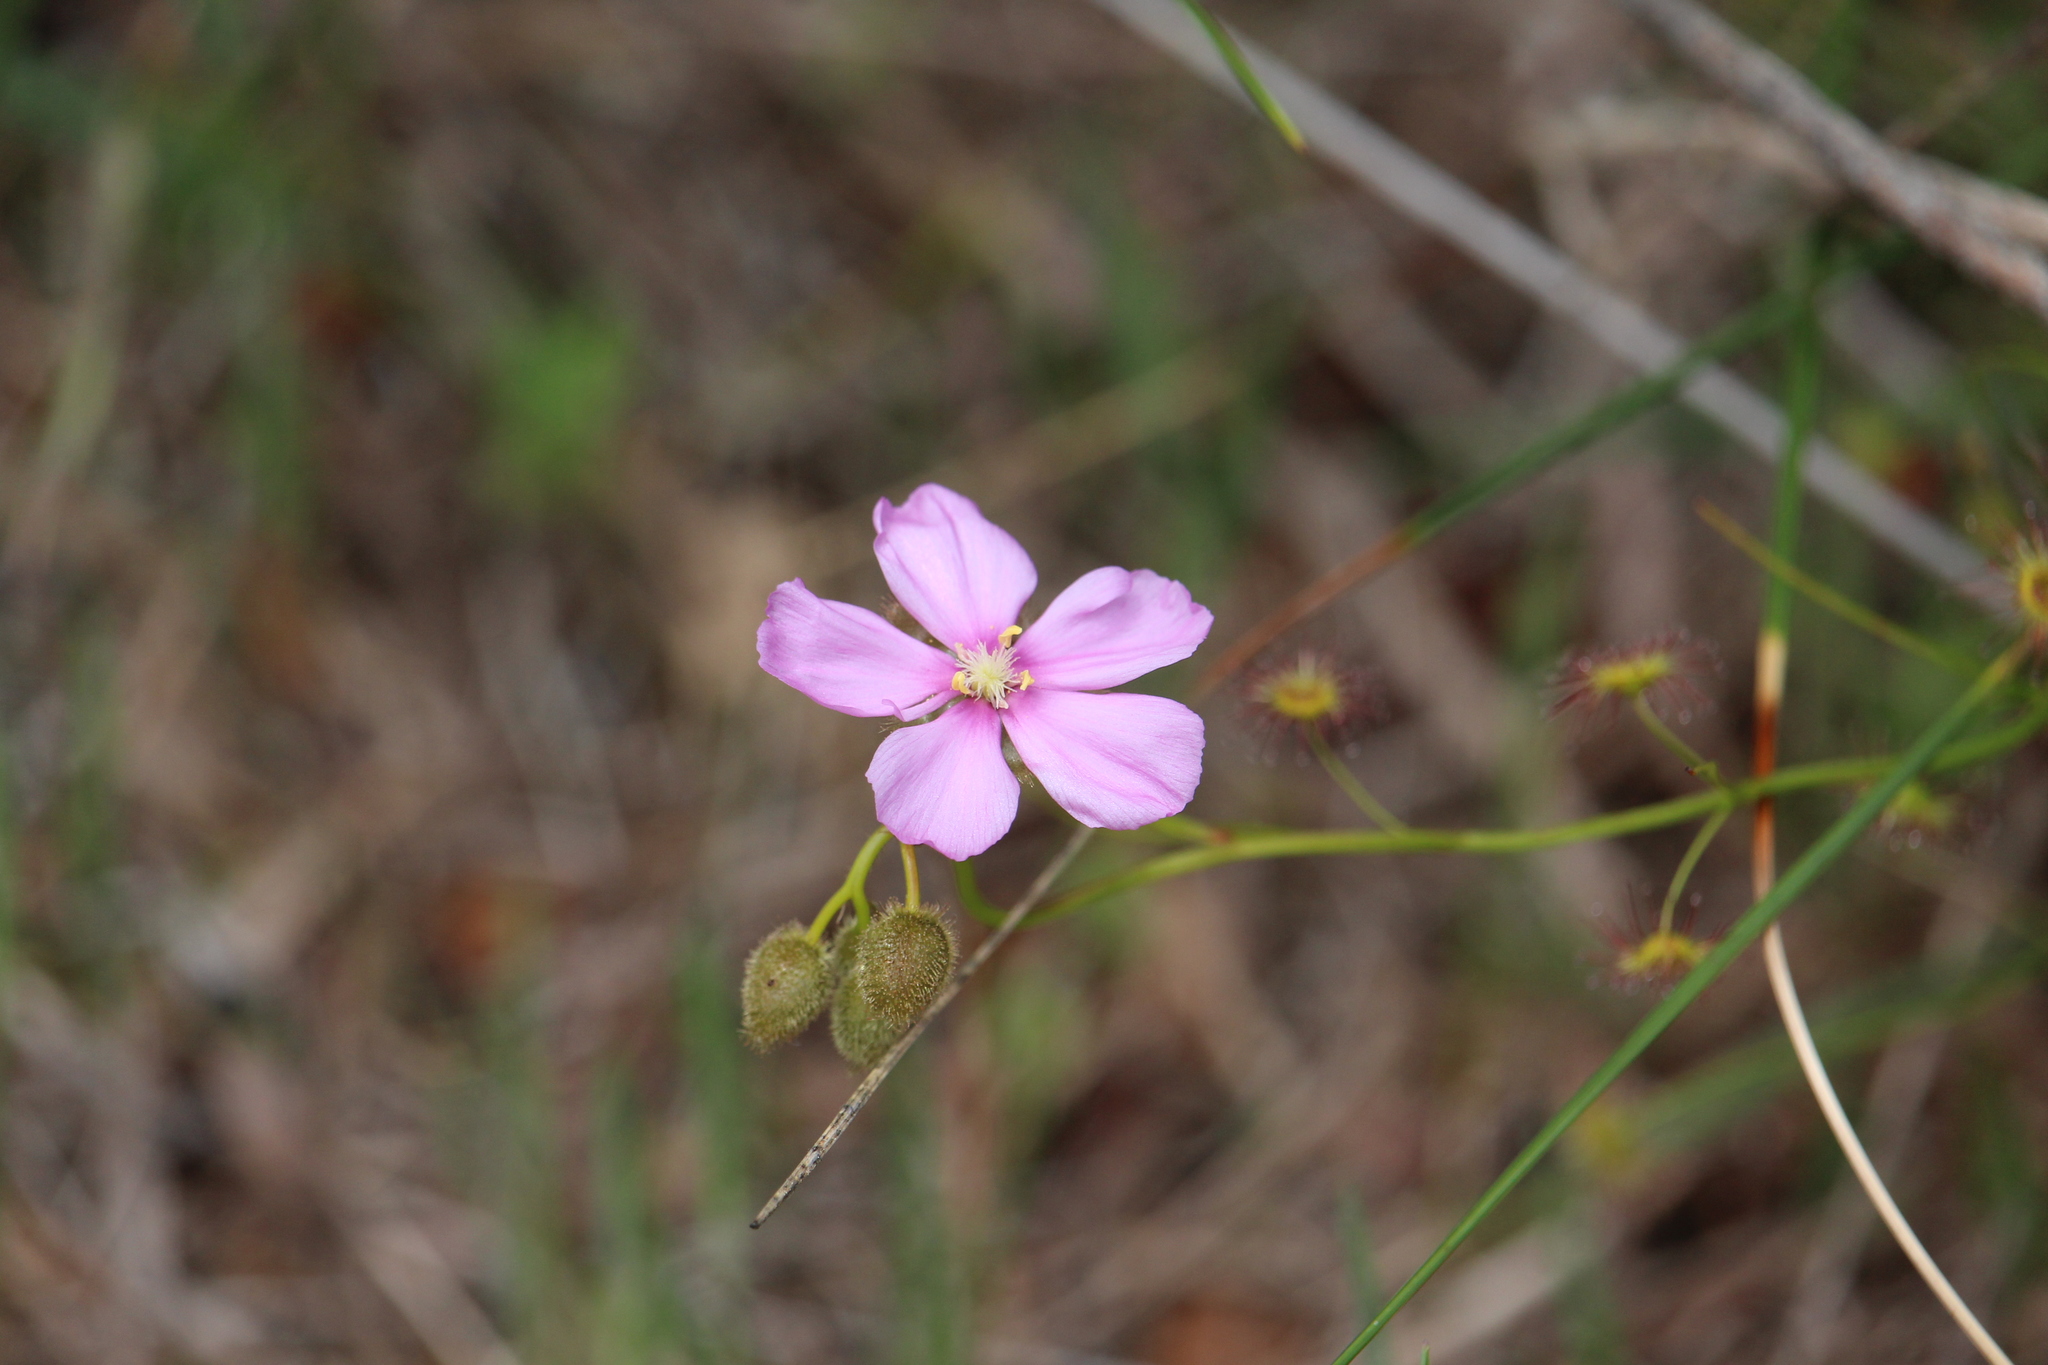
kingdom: Plantae
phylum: Tracheophyta
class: Magnoliopsida
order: Caryophyllales
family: Droseraceae
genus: Drosera
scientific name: Drosera
